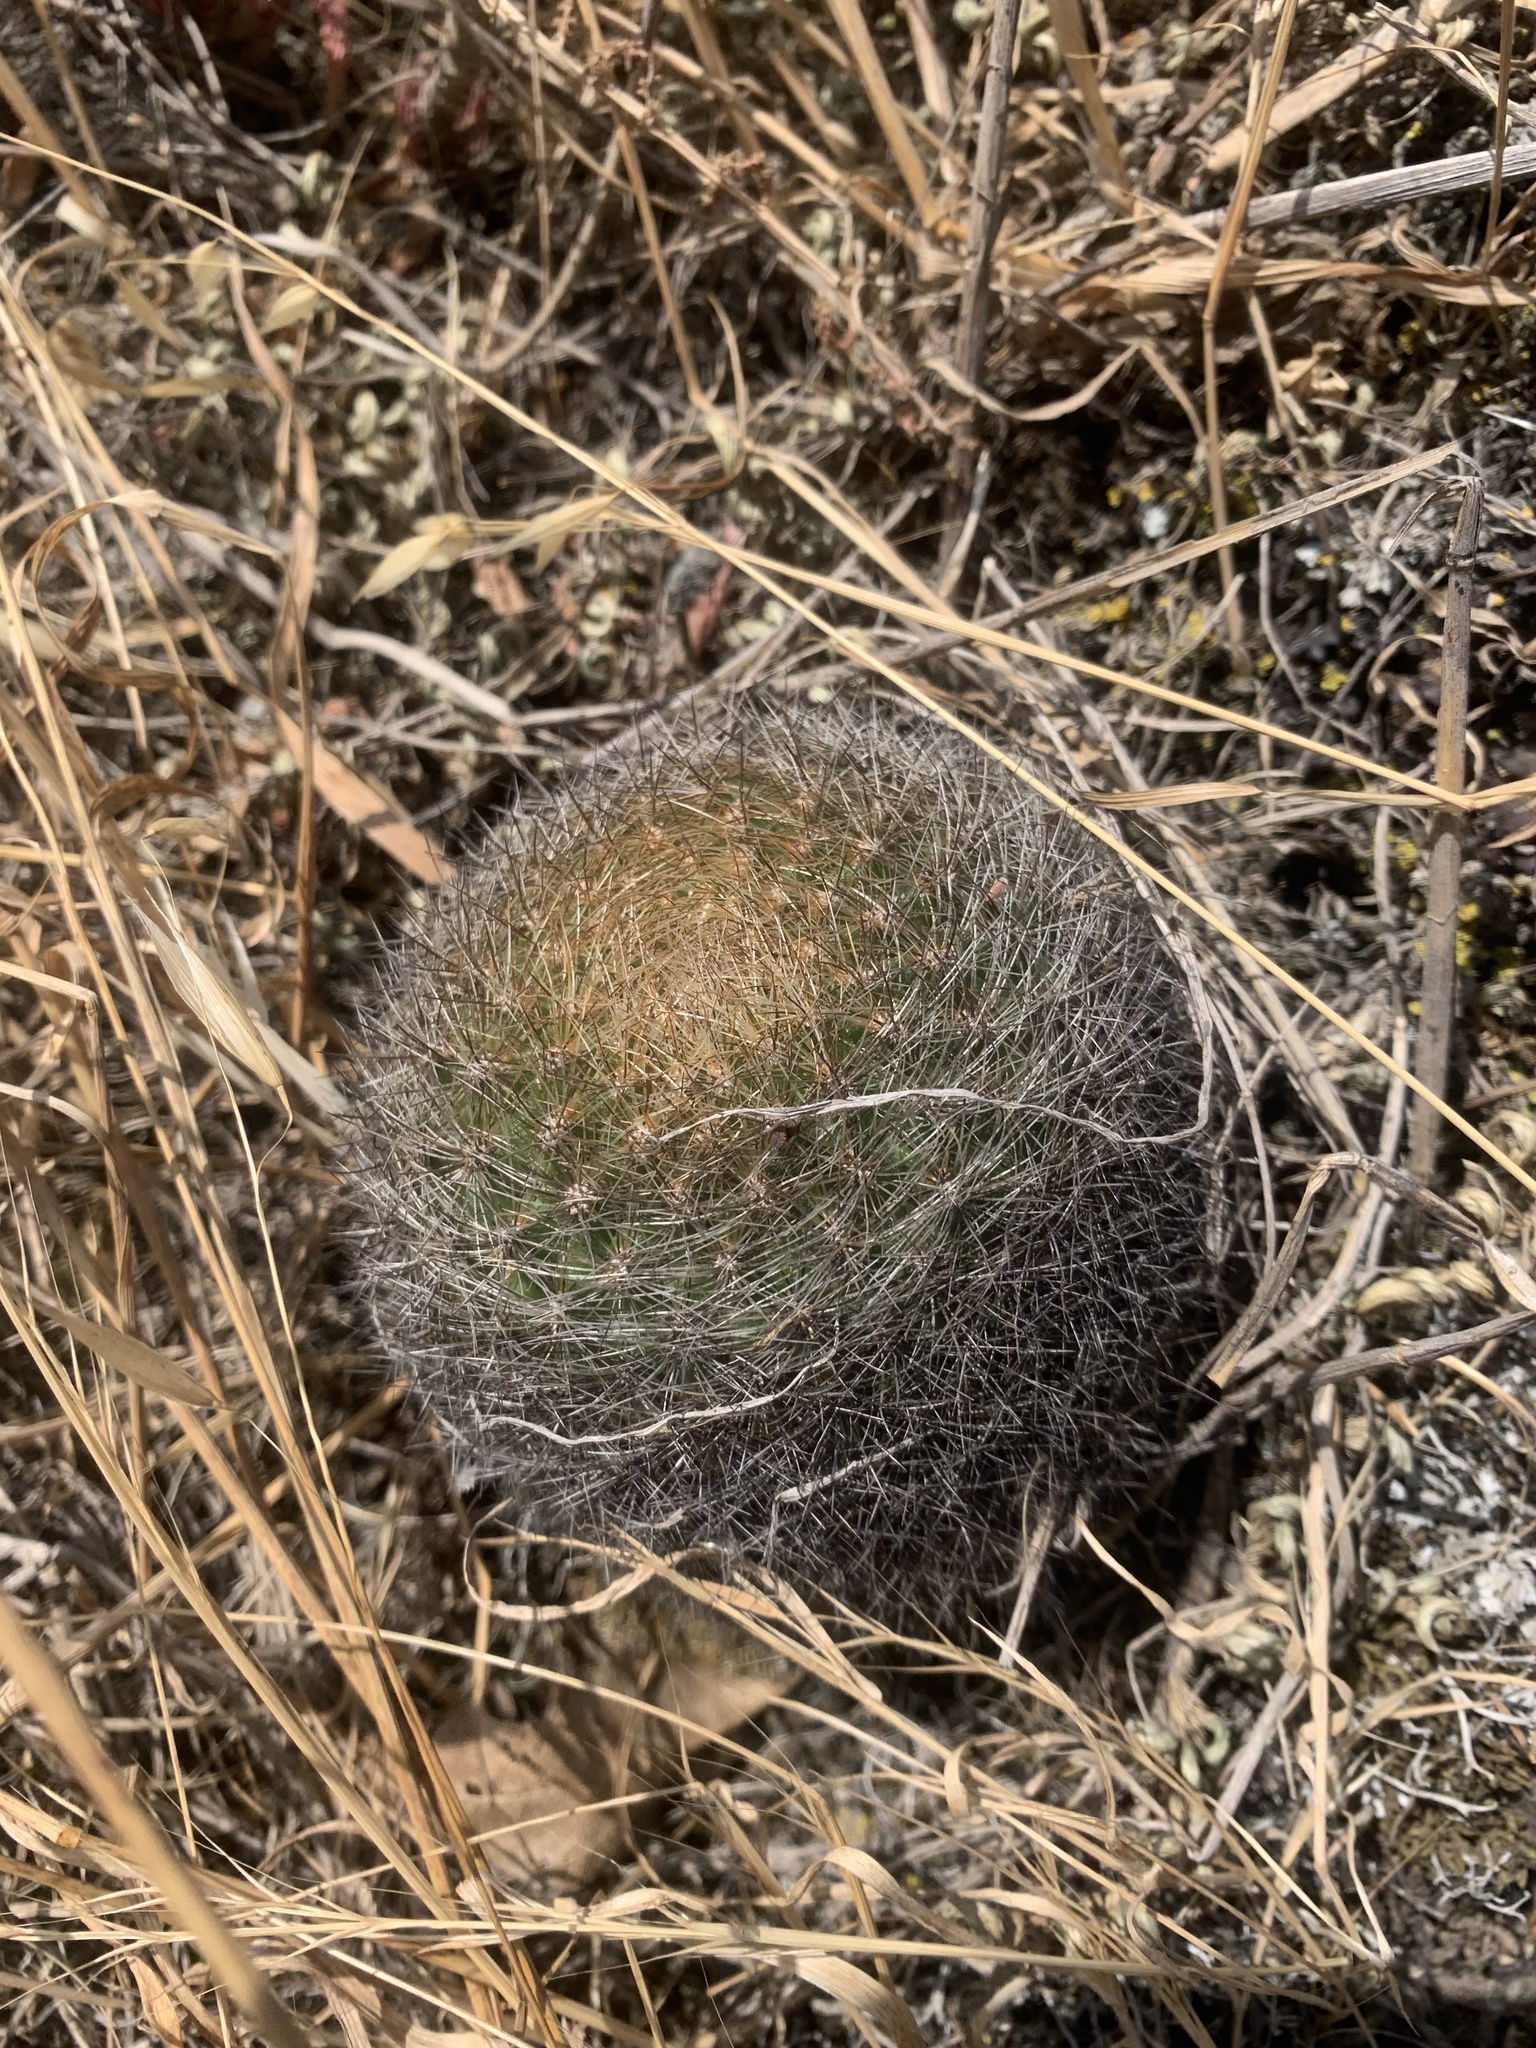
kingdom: Plantae
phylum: Tracheophyta
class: Magnoliopsida
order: Caryophyllales
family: Cactaceae
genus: Matucana
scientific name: Matucana haynii
